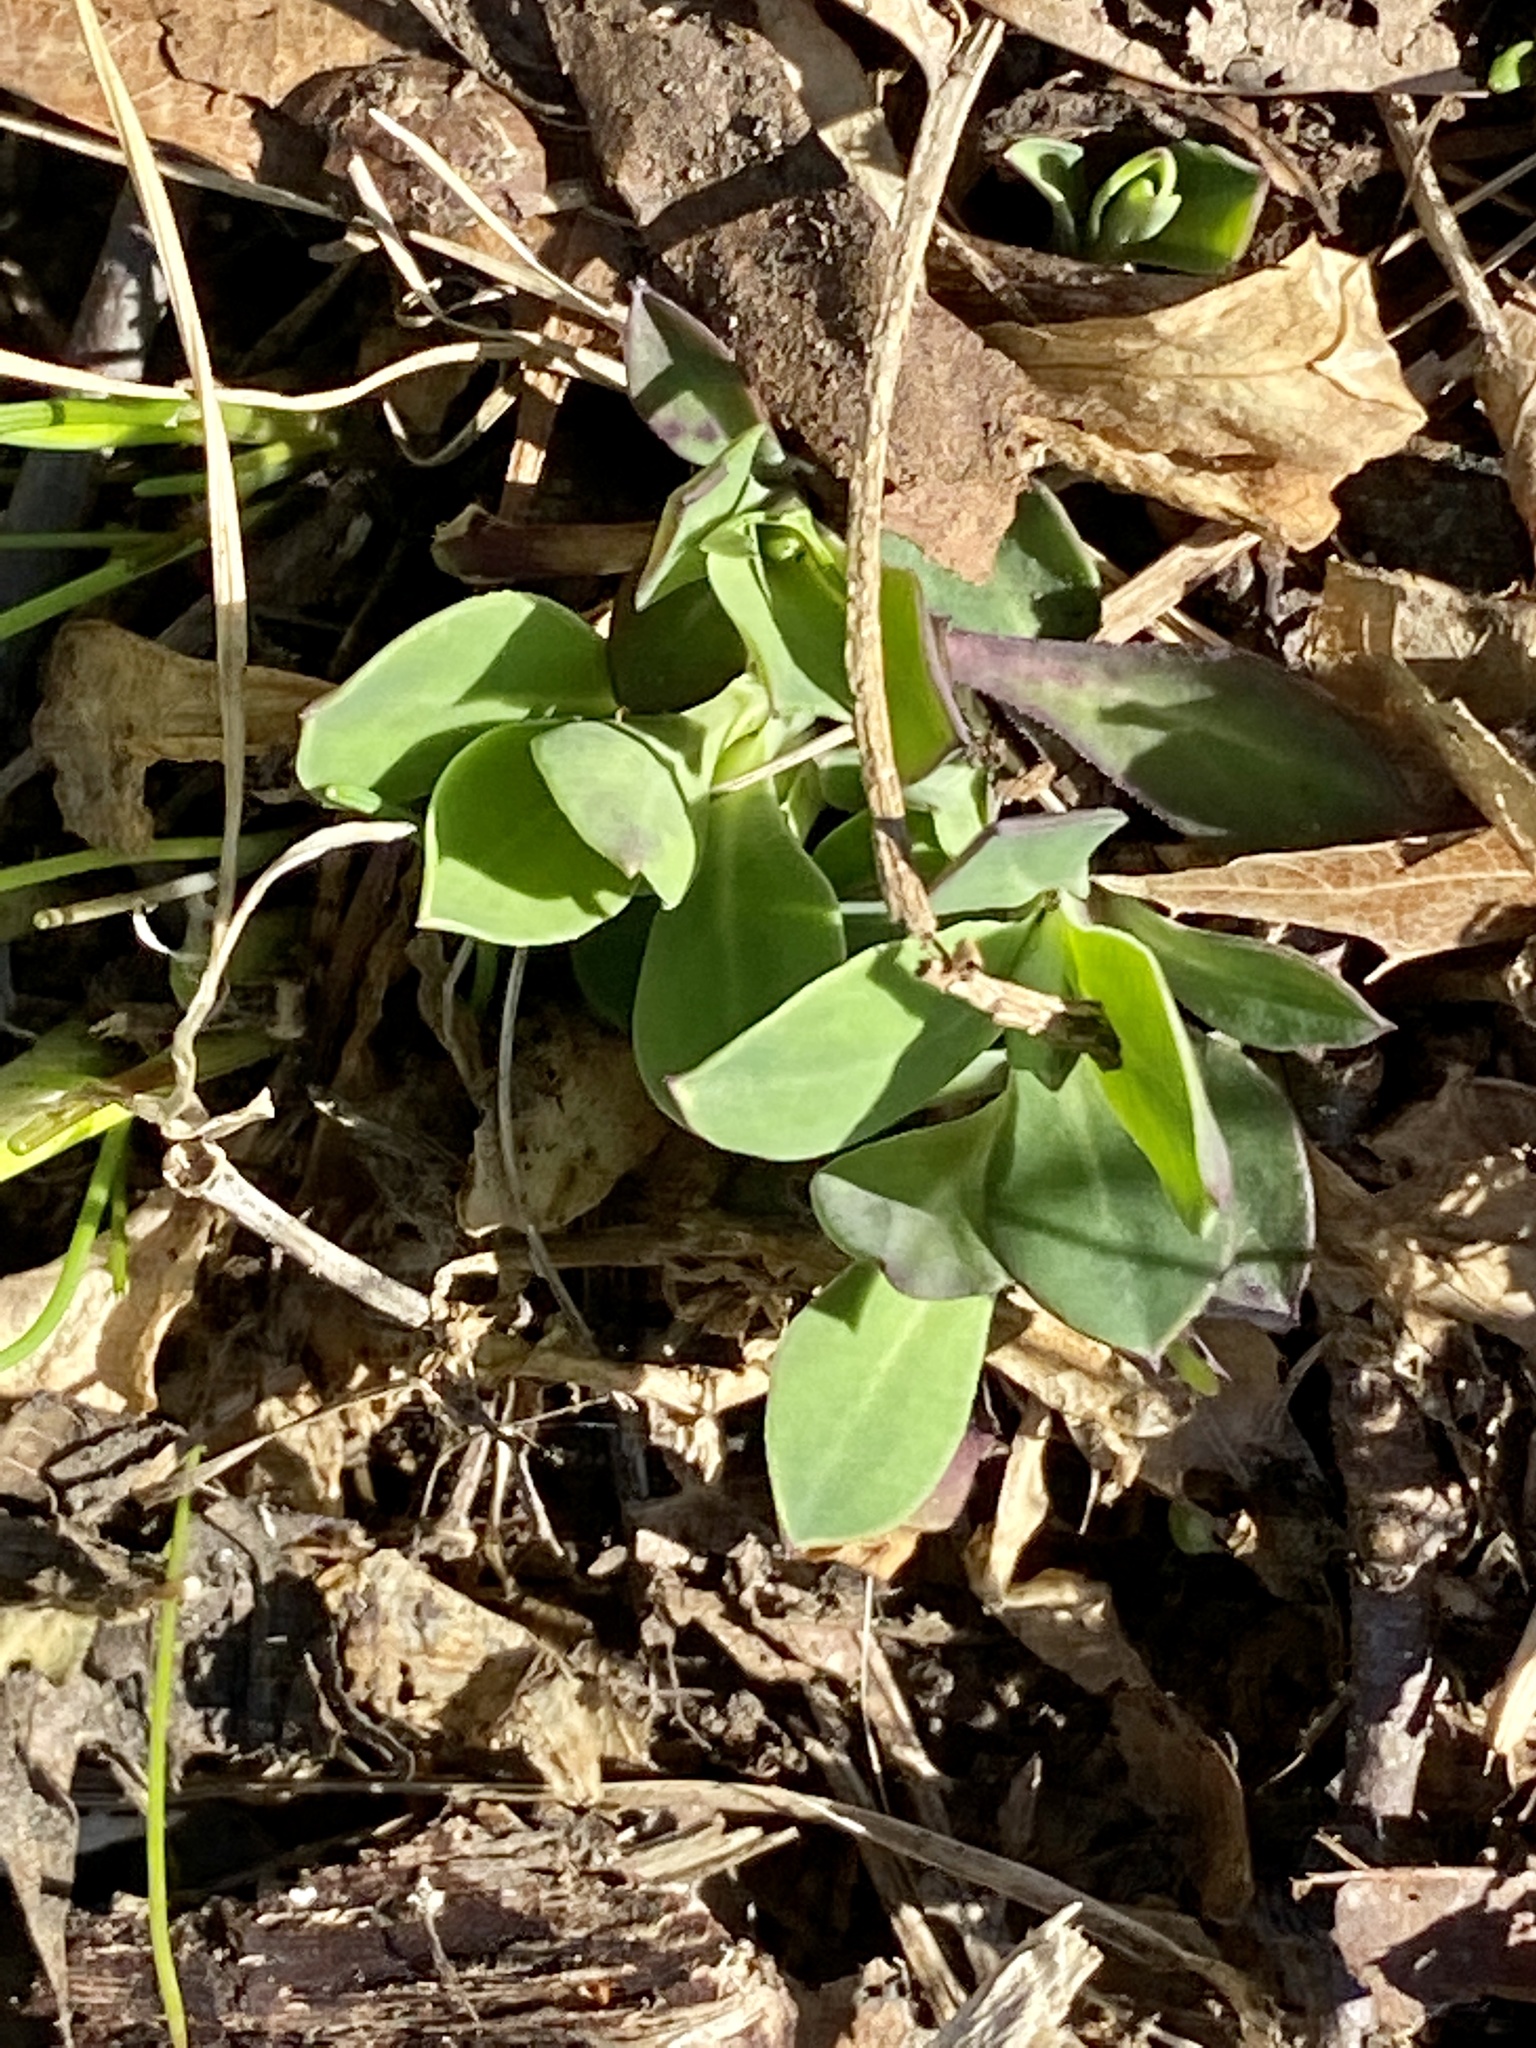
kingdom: Plantae
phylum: Tracheophyta
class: Magnoliopsida
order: Caryophyllales
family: Caryophyllaceae
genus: Silene
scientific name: Silene vulgaris
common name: Bladder campion
